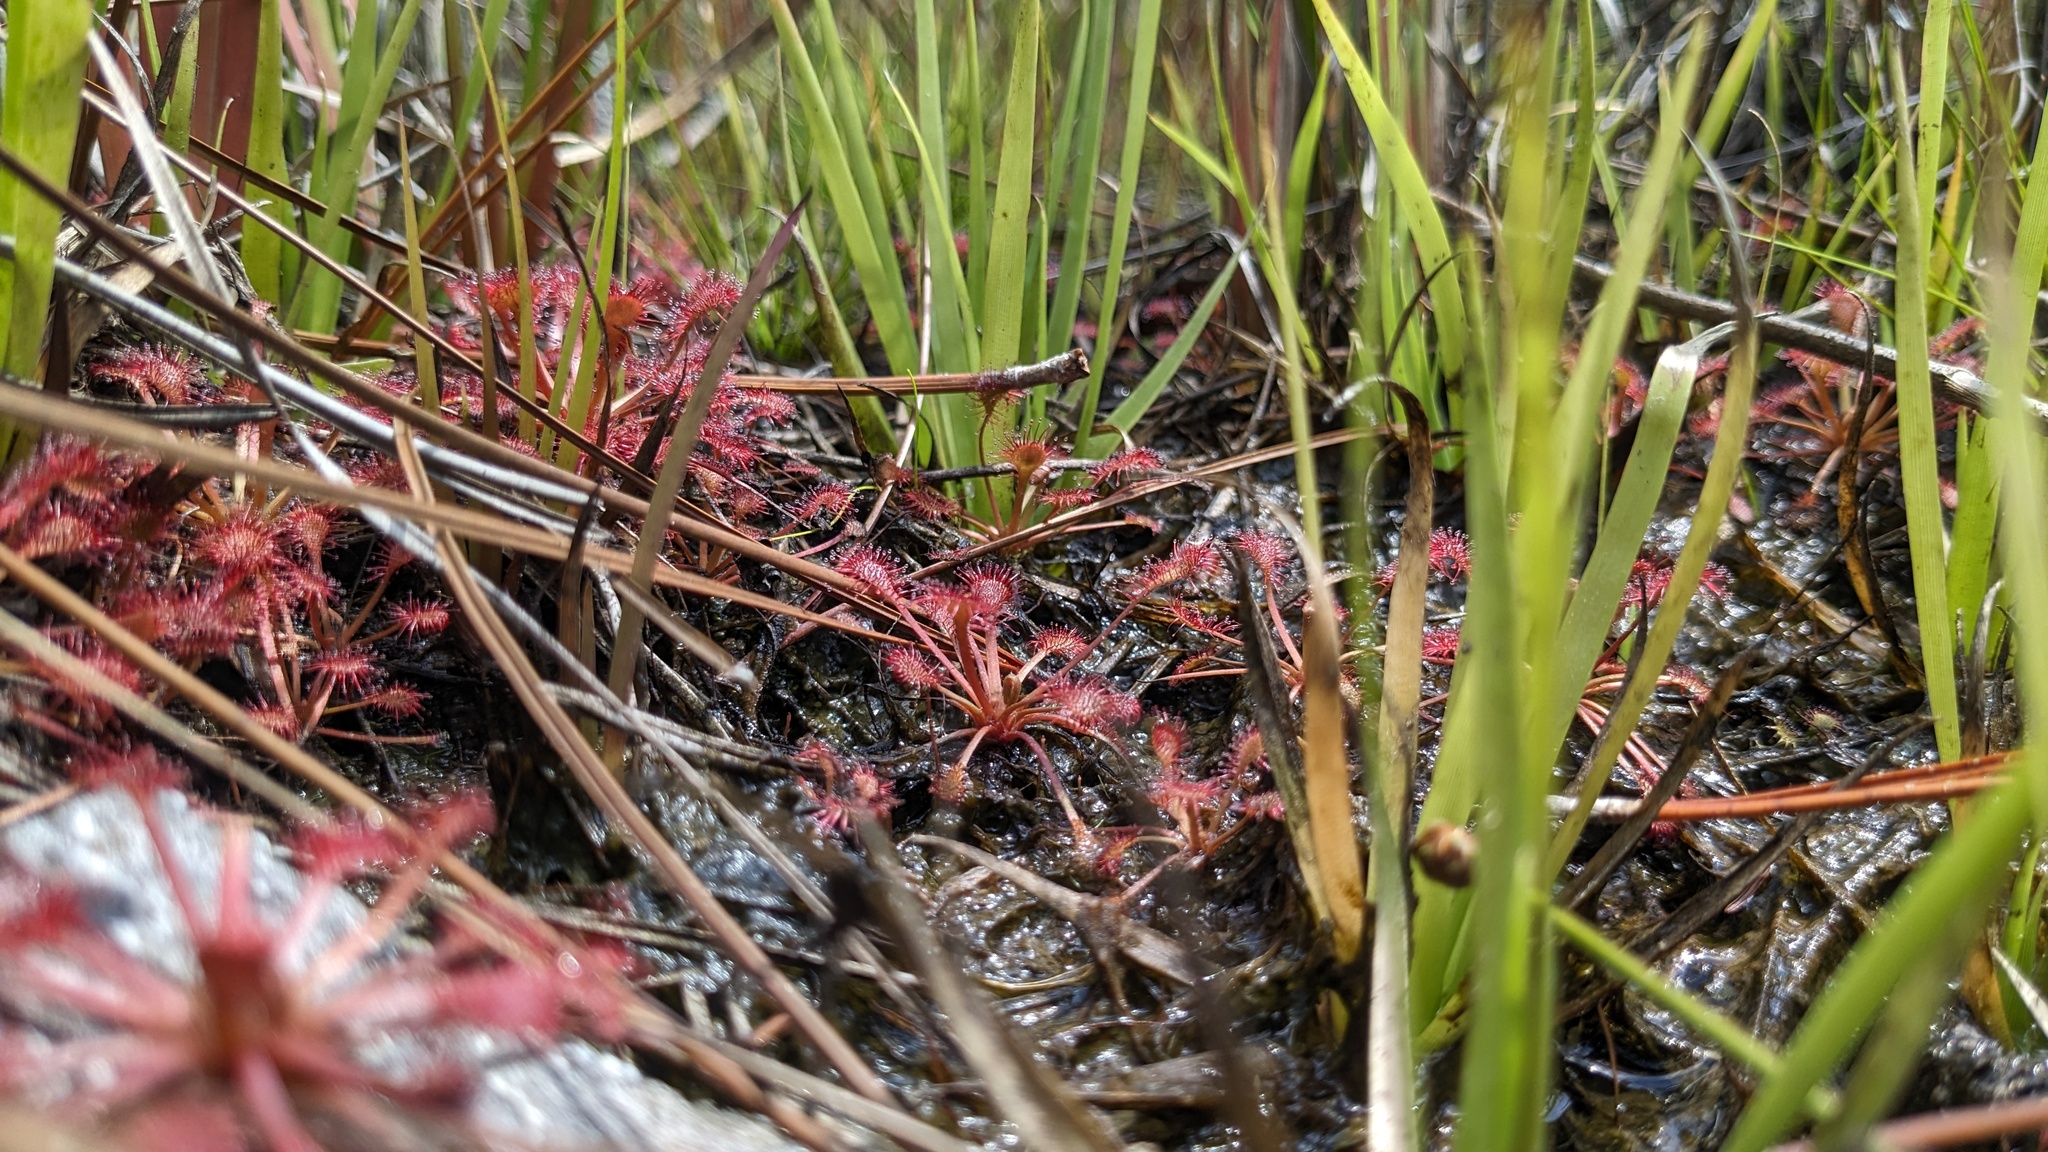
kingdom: Plantae
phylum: Tracheophyta
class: Magnoliopsida
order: Caryophyllales
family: Droseraceae
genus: Drosera
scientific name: Drosera capillaris
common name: Pink sundew
